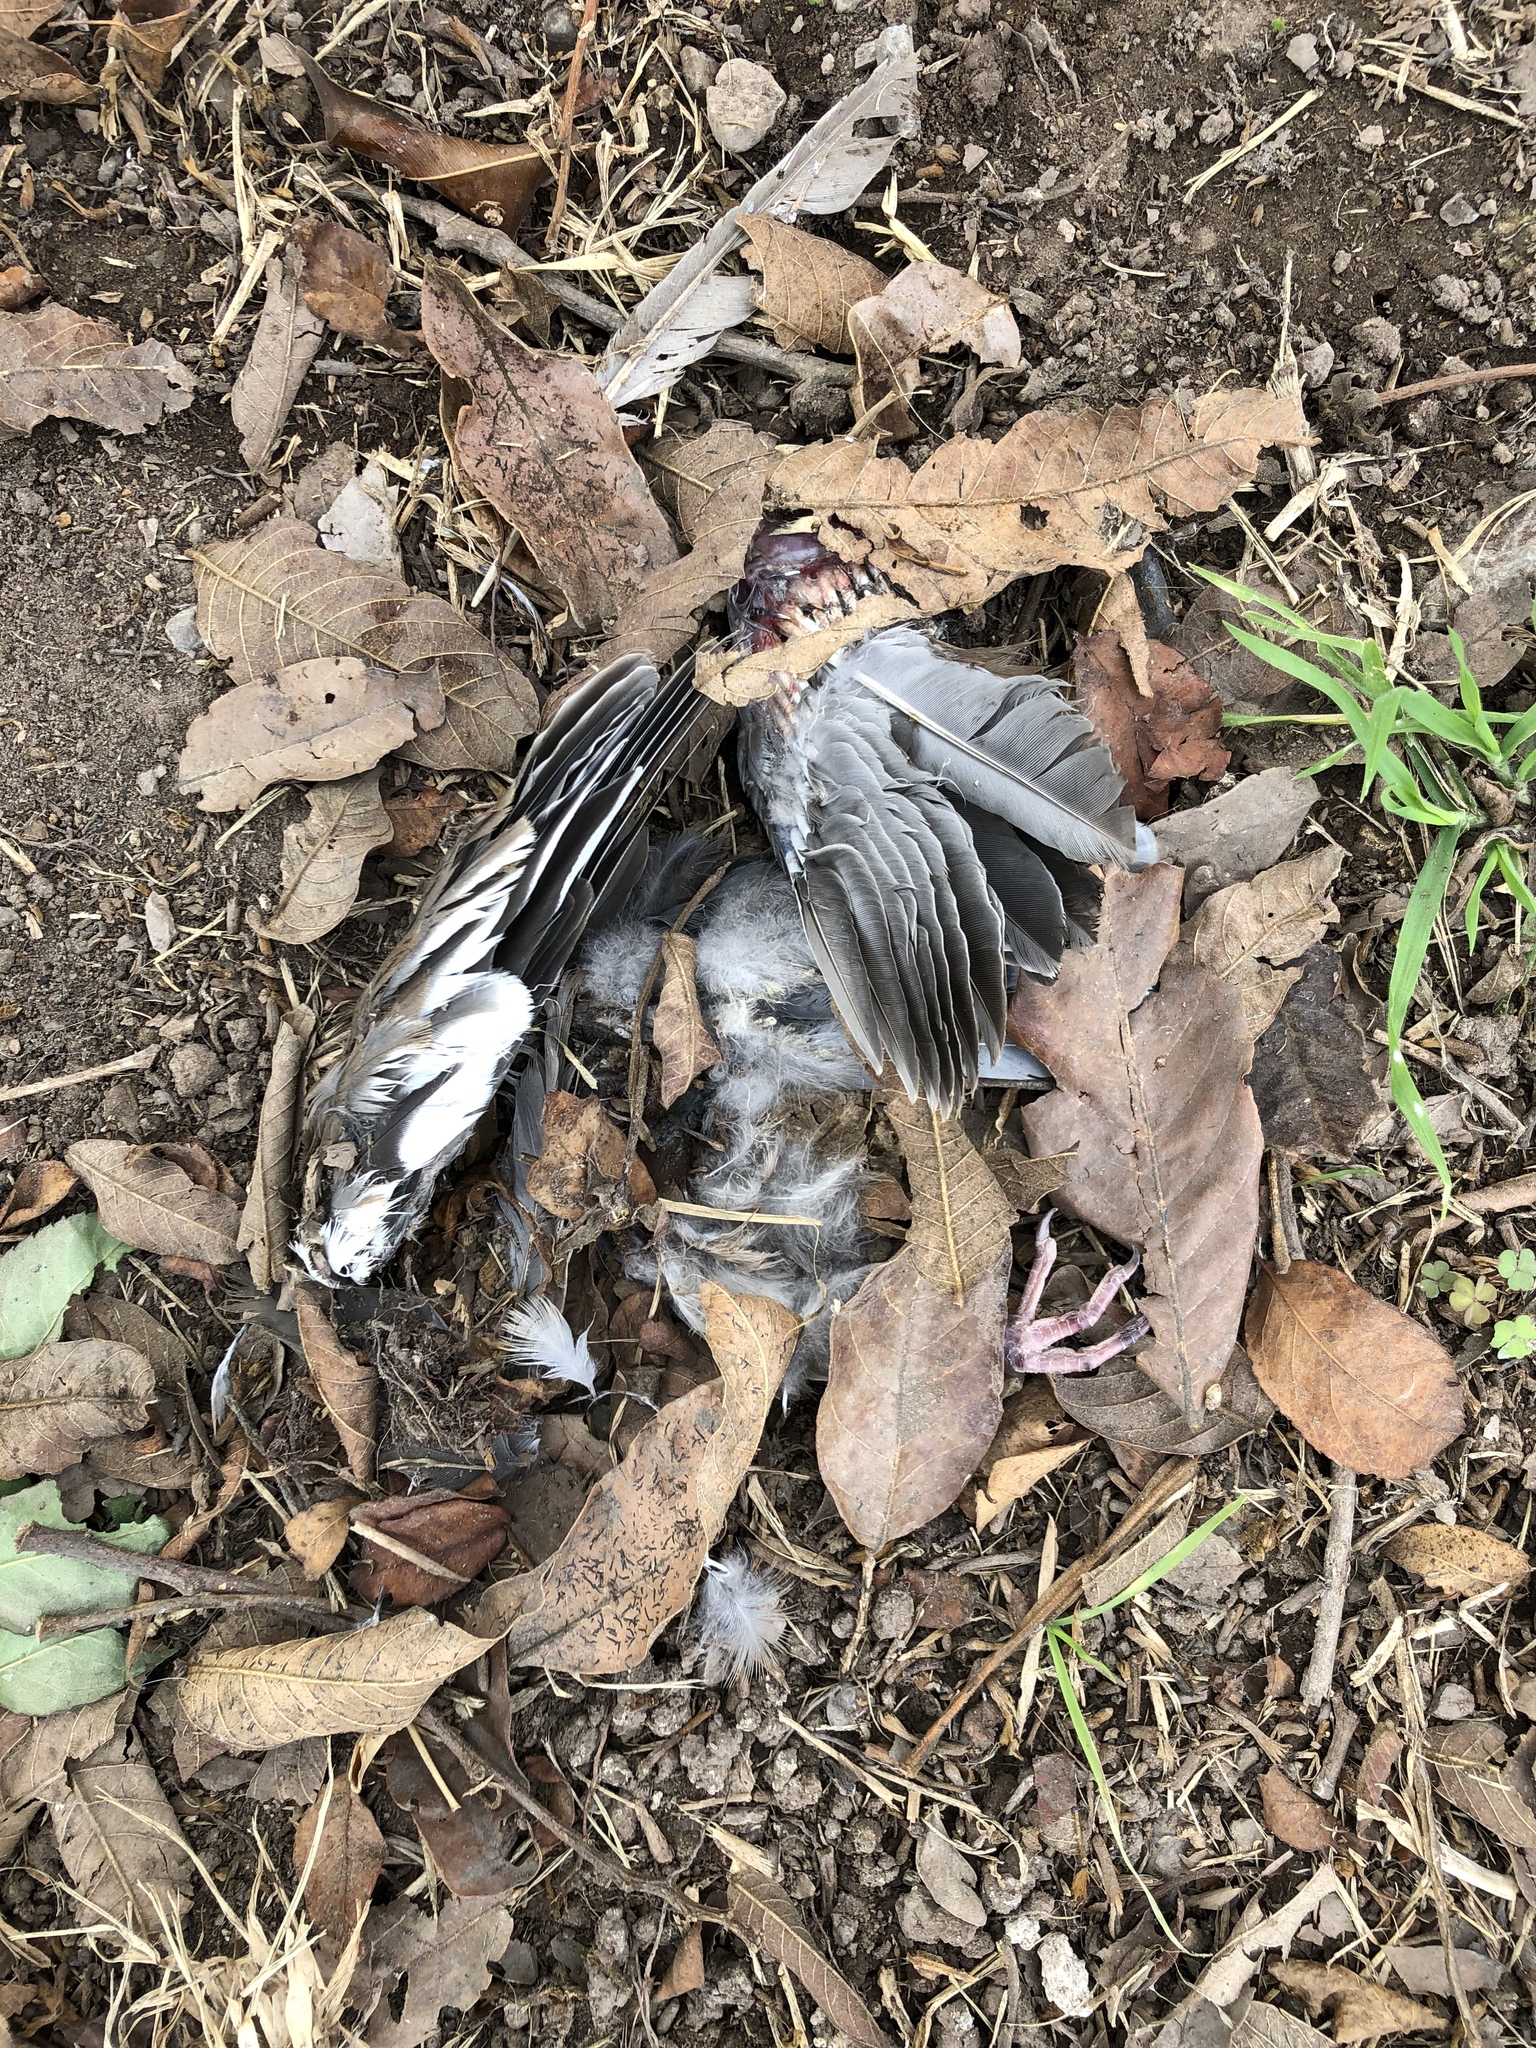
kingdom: Animalia
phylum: Chordata
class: Aves
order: Columbiformes
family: Columbidae
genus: Zenaida
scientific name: Zenaida meloda
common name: West peruvian dove
